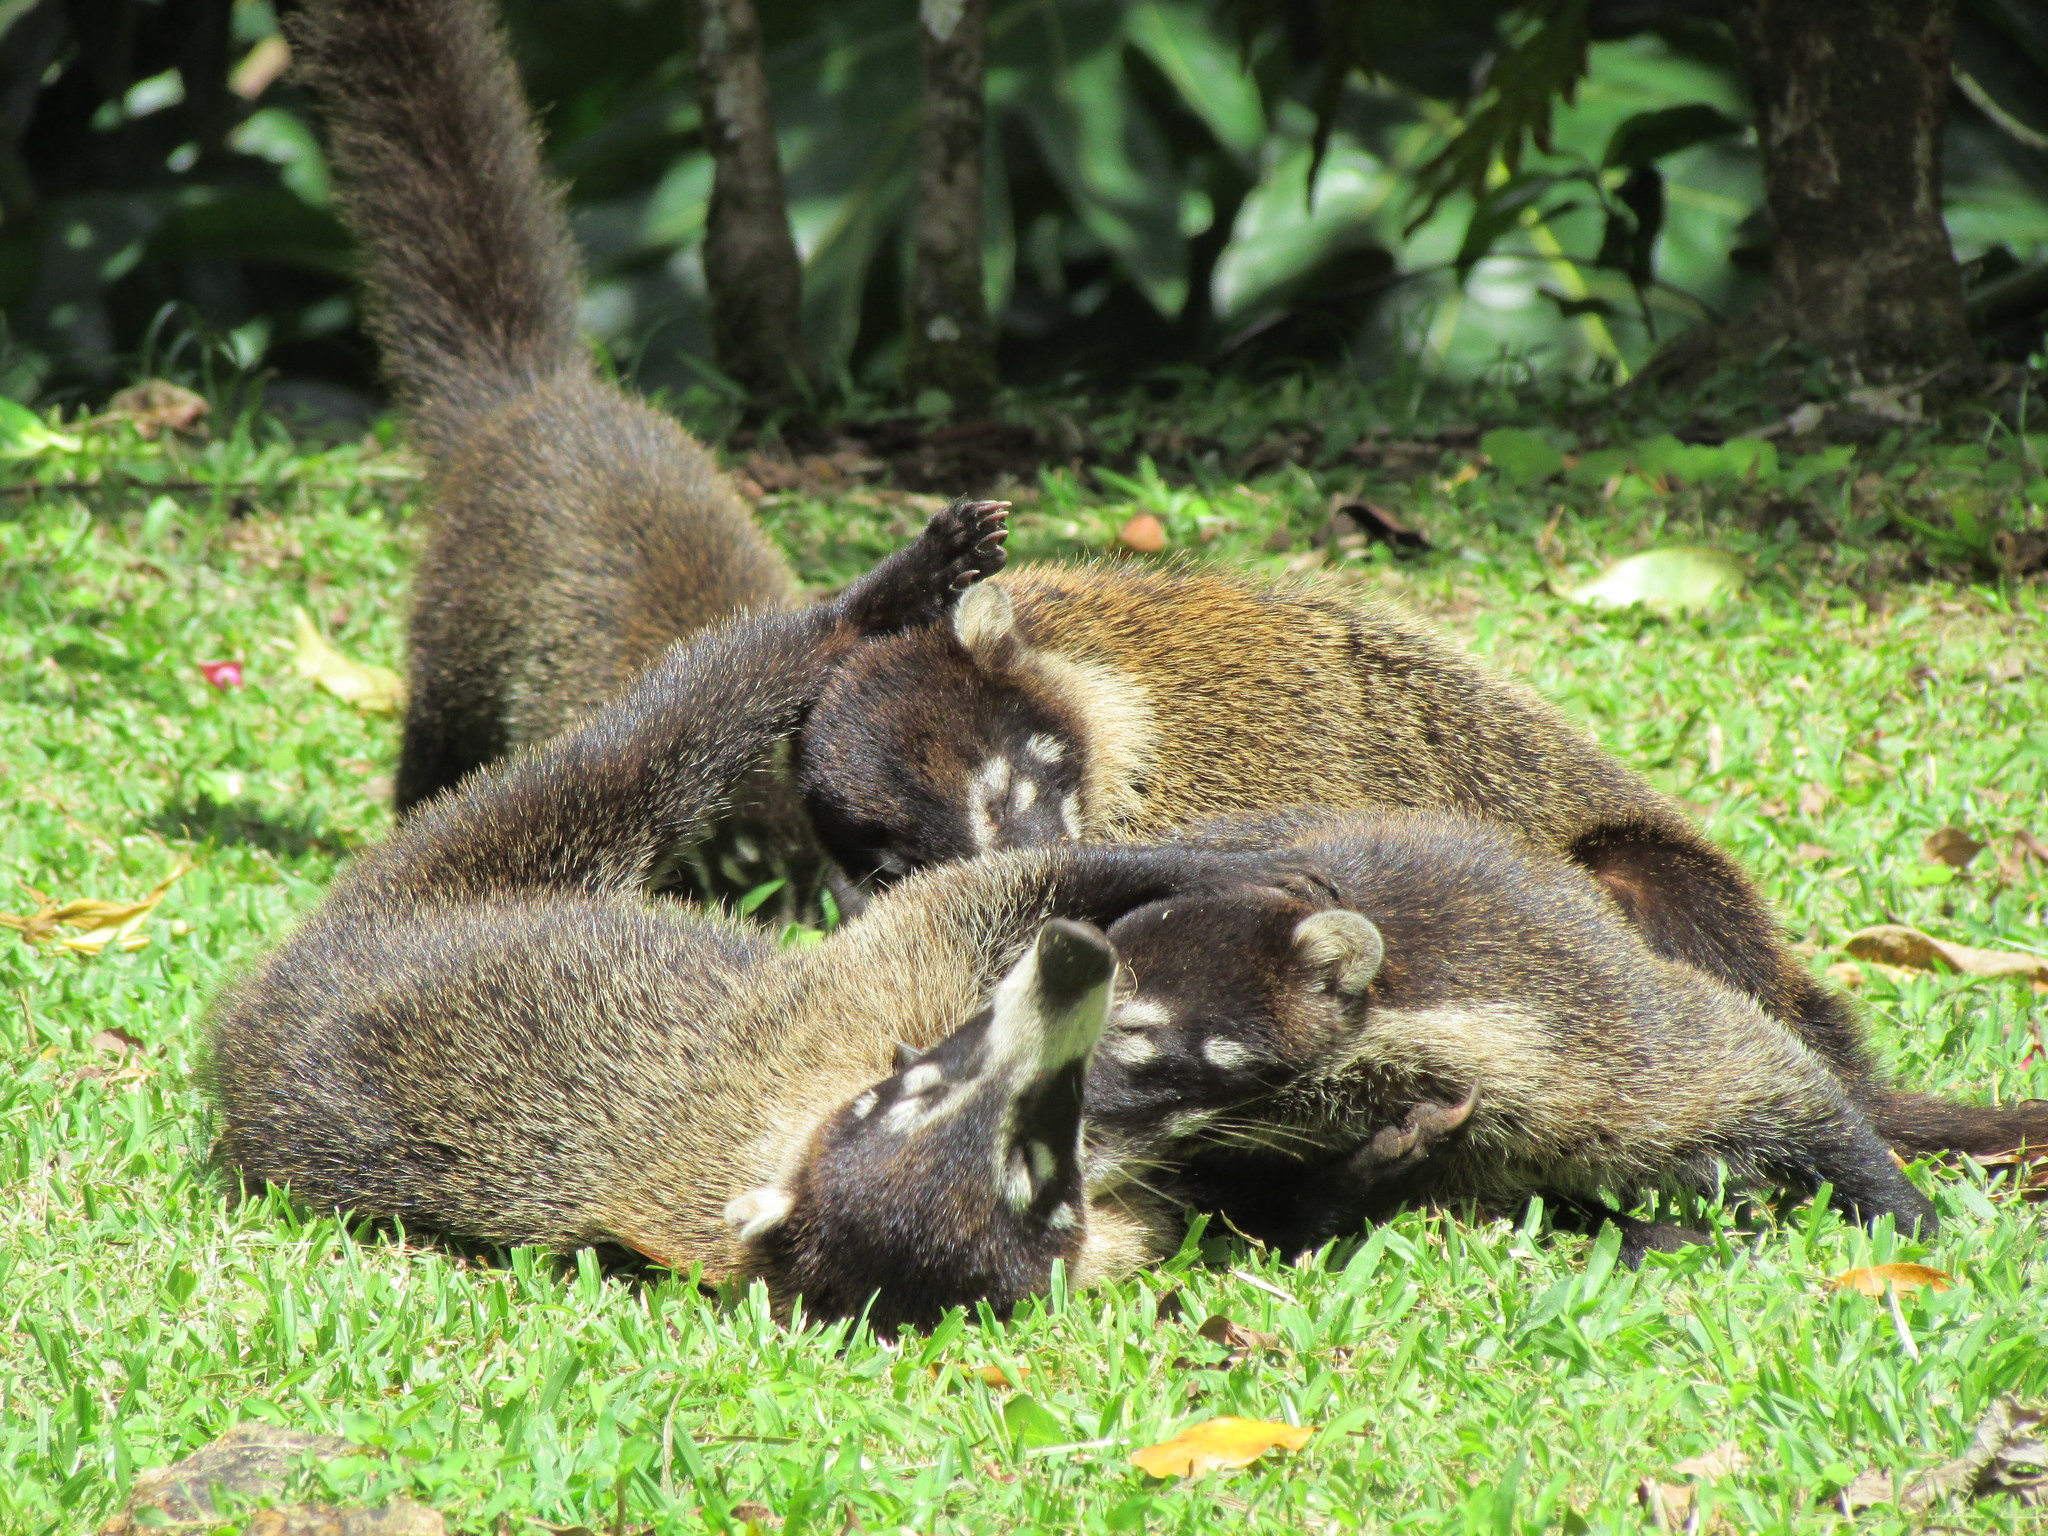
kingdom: Animalia
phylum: Chordata
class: Mammalia
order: Carnivora
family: Procyonidae
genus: Nasua
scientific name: Nasua narica
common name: White-nosed coati
